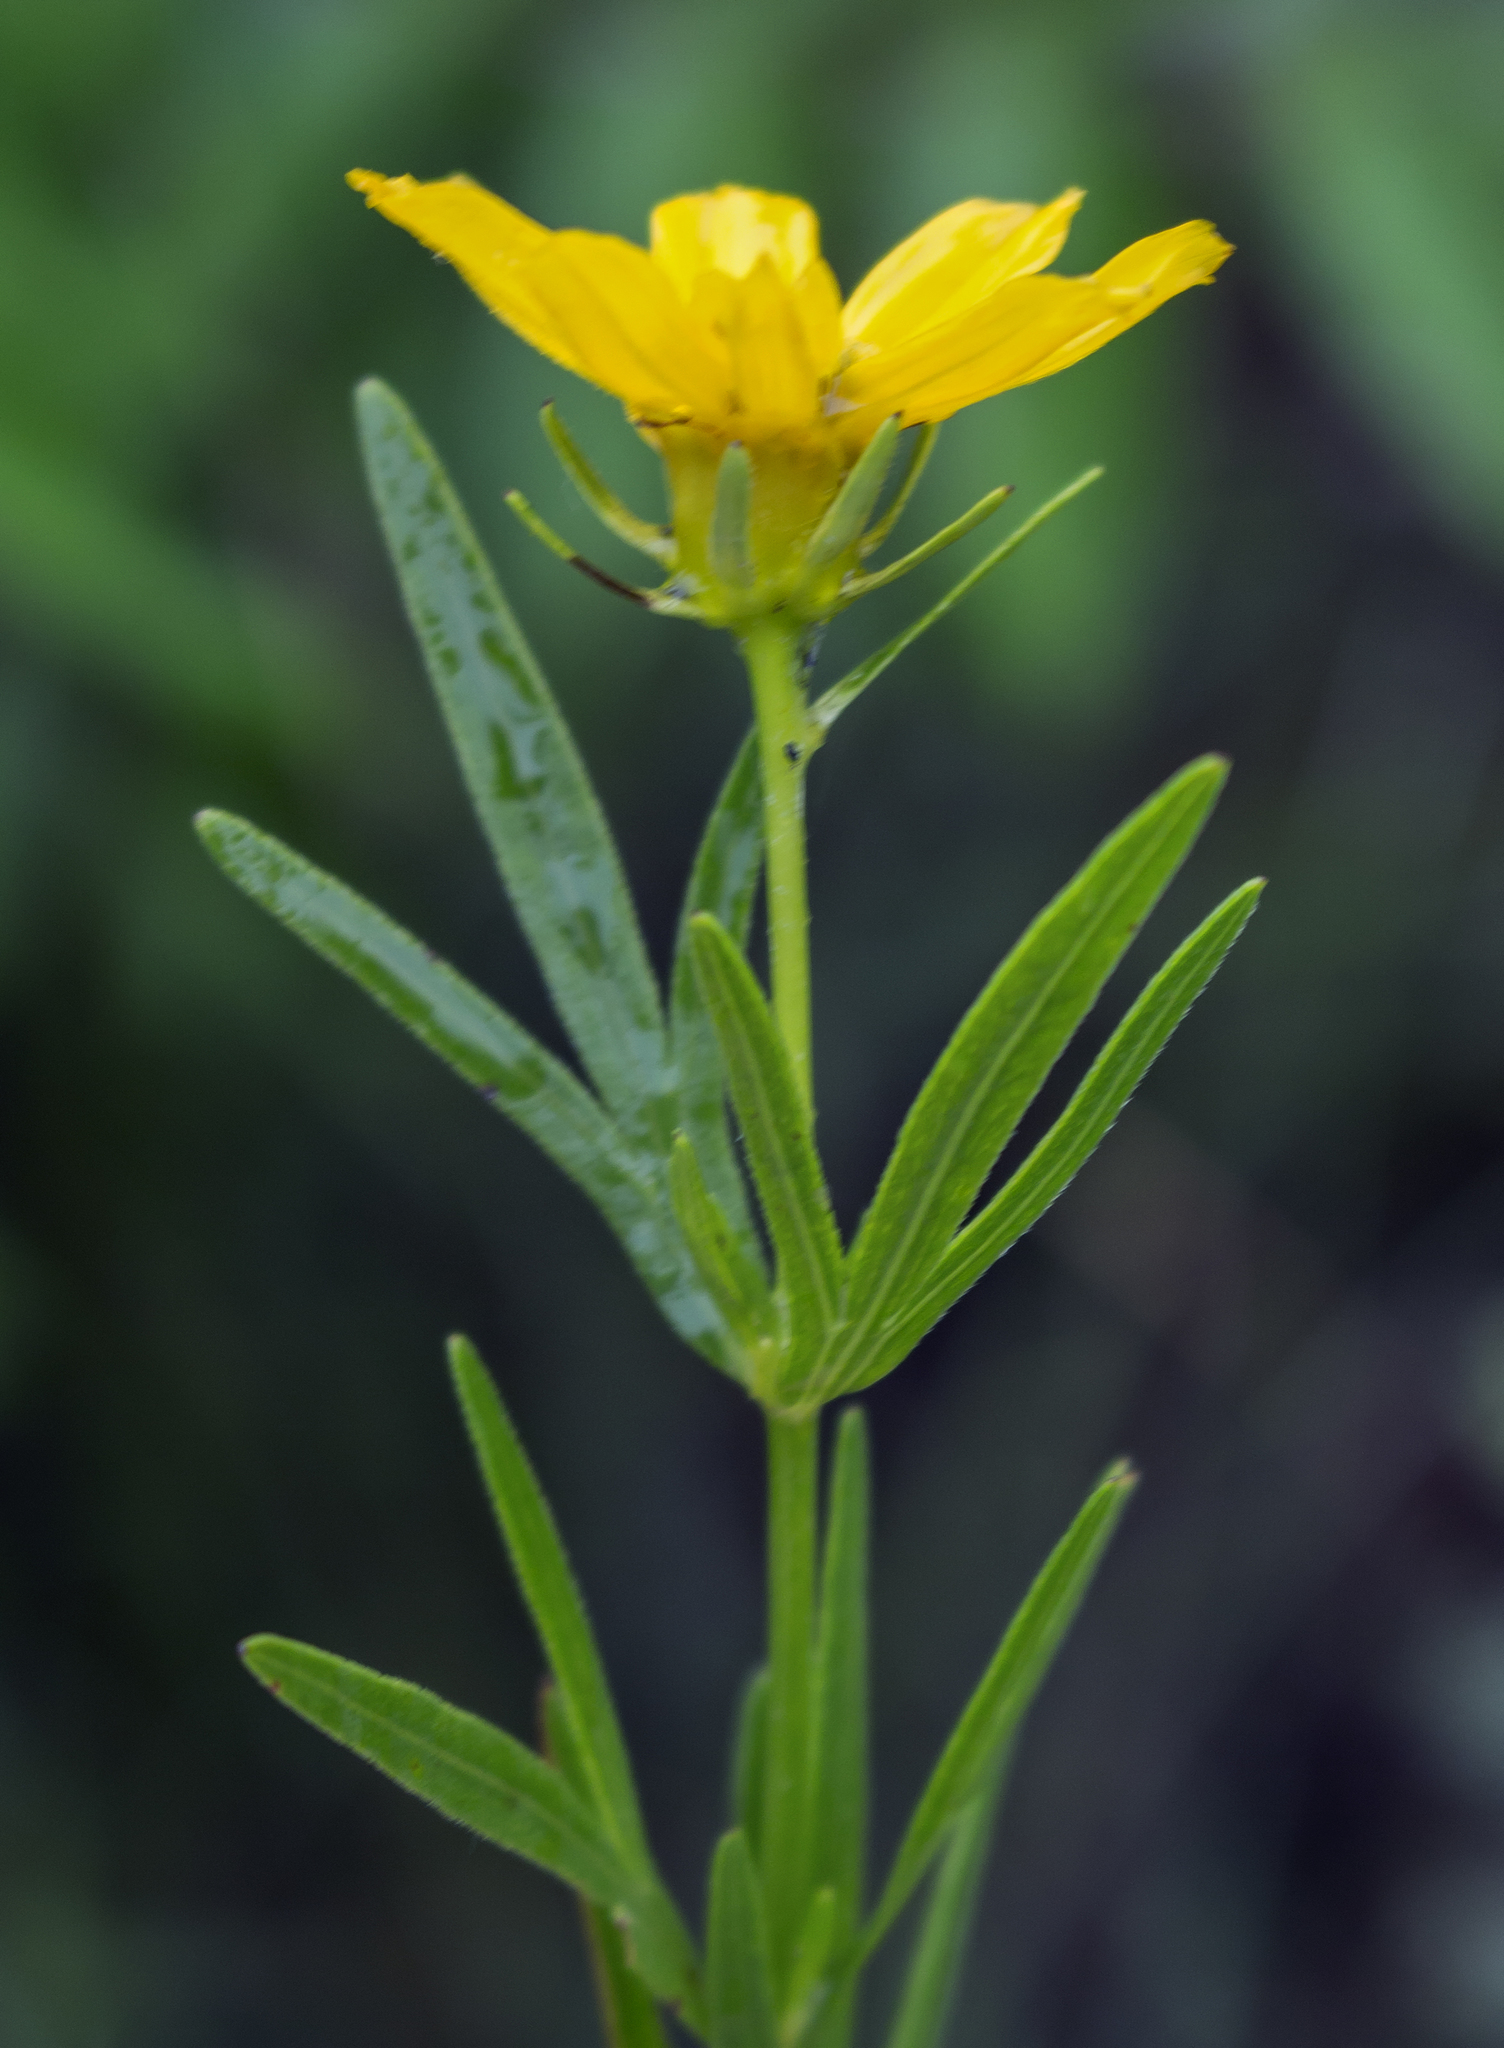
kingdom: Plantae
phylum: Tracheophyta
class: Magnoliopsida
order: Asterales
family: Asteraceae
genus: Coreopsis
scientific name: Coreopsis palmata
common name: Prairie coreopsis
